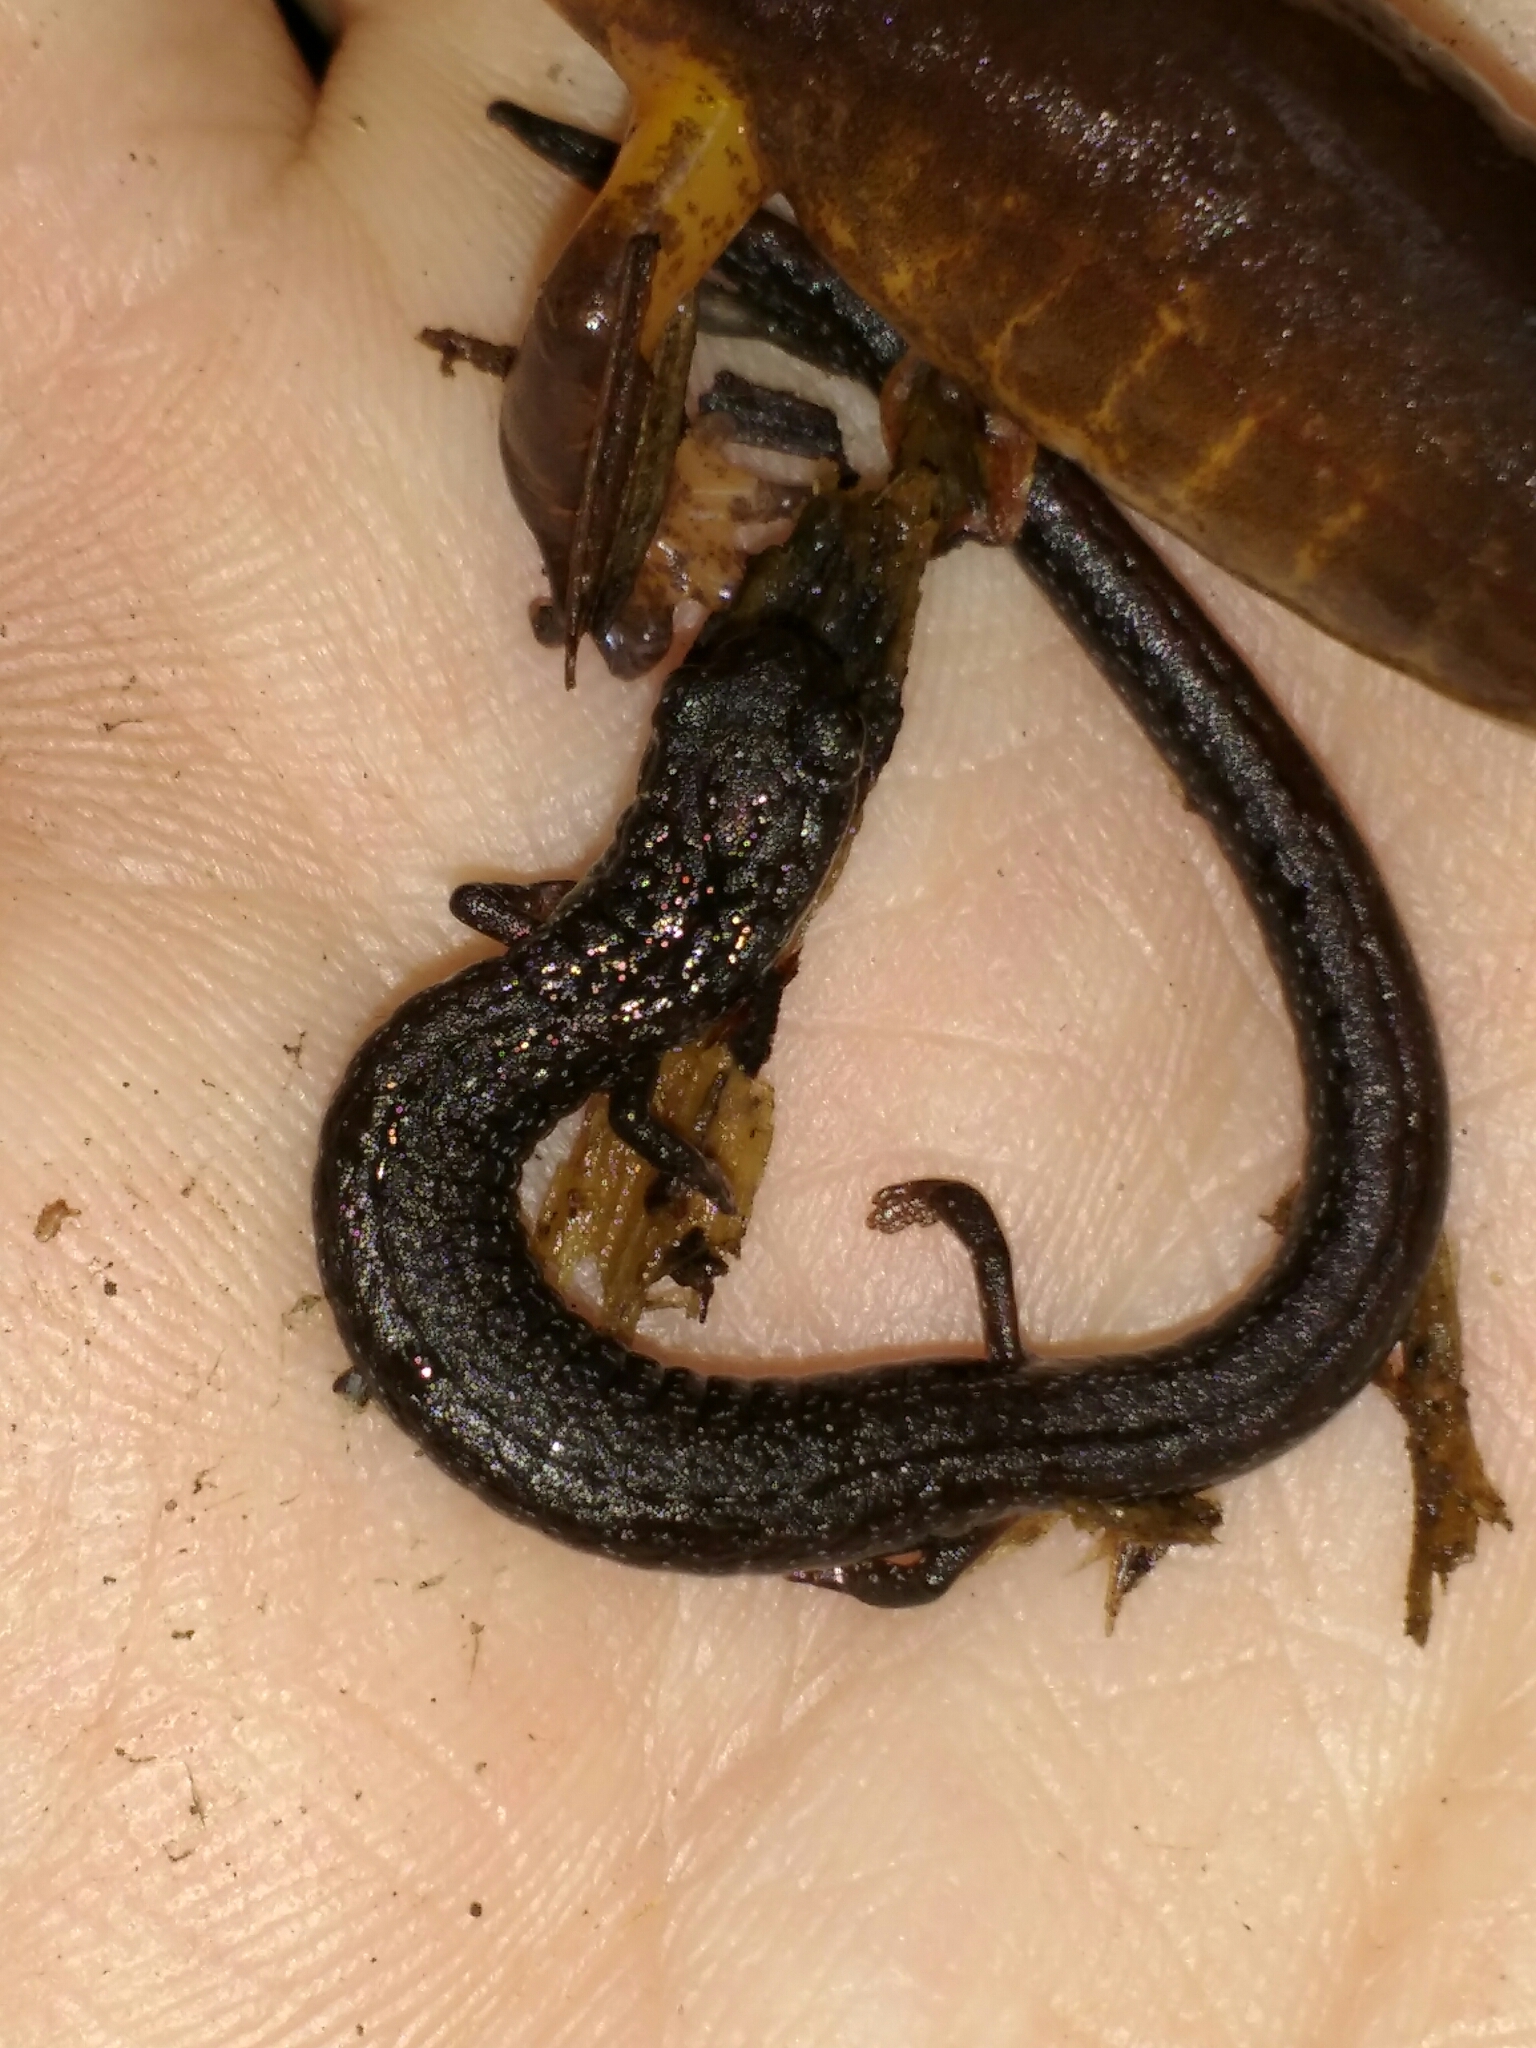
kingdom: Animalia
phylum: Chordata
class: Amphibia
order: Caudata
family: Plethodontidae
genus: Batrachoseps
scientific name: Batrachoseps attenuatus
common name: California slender salamander
